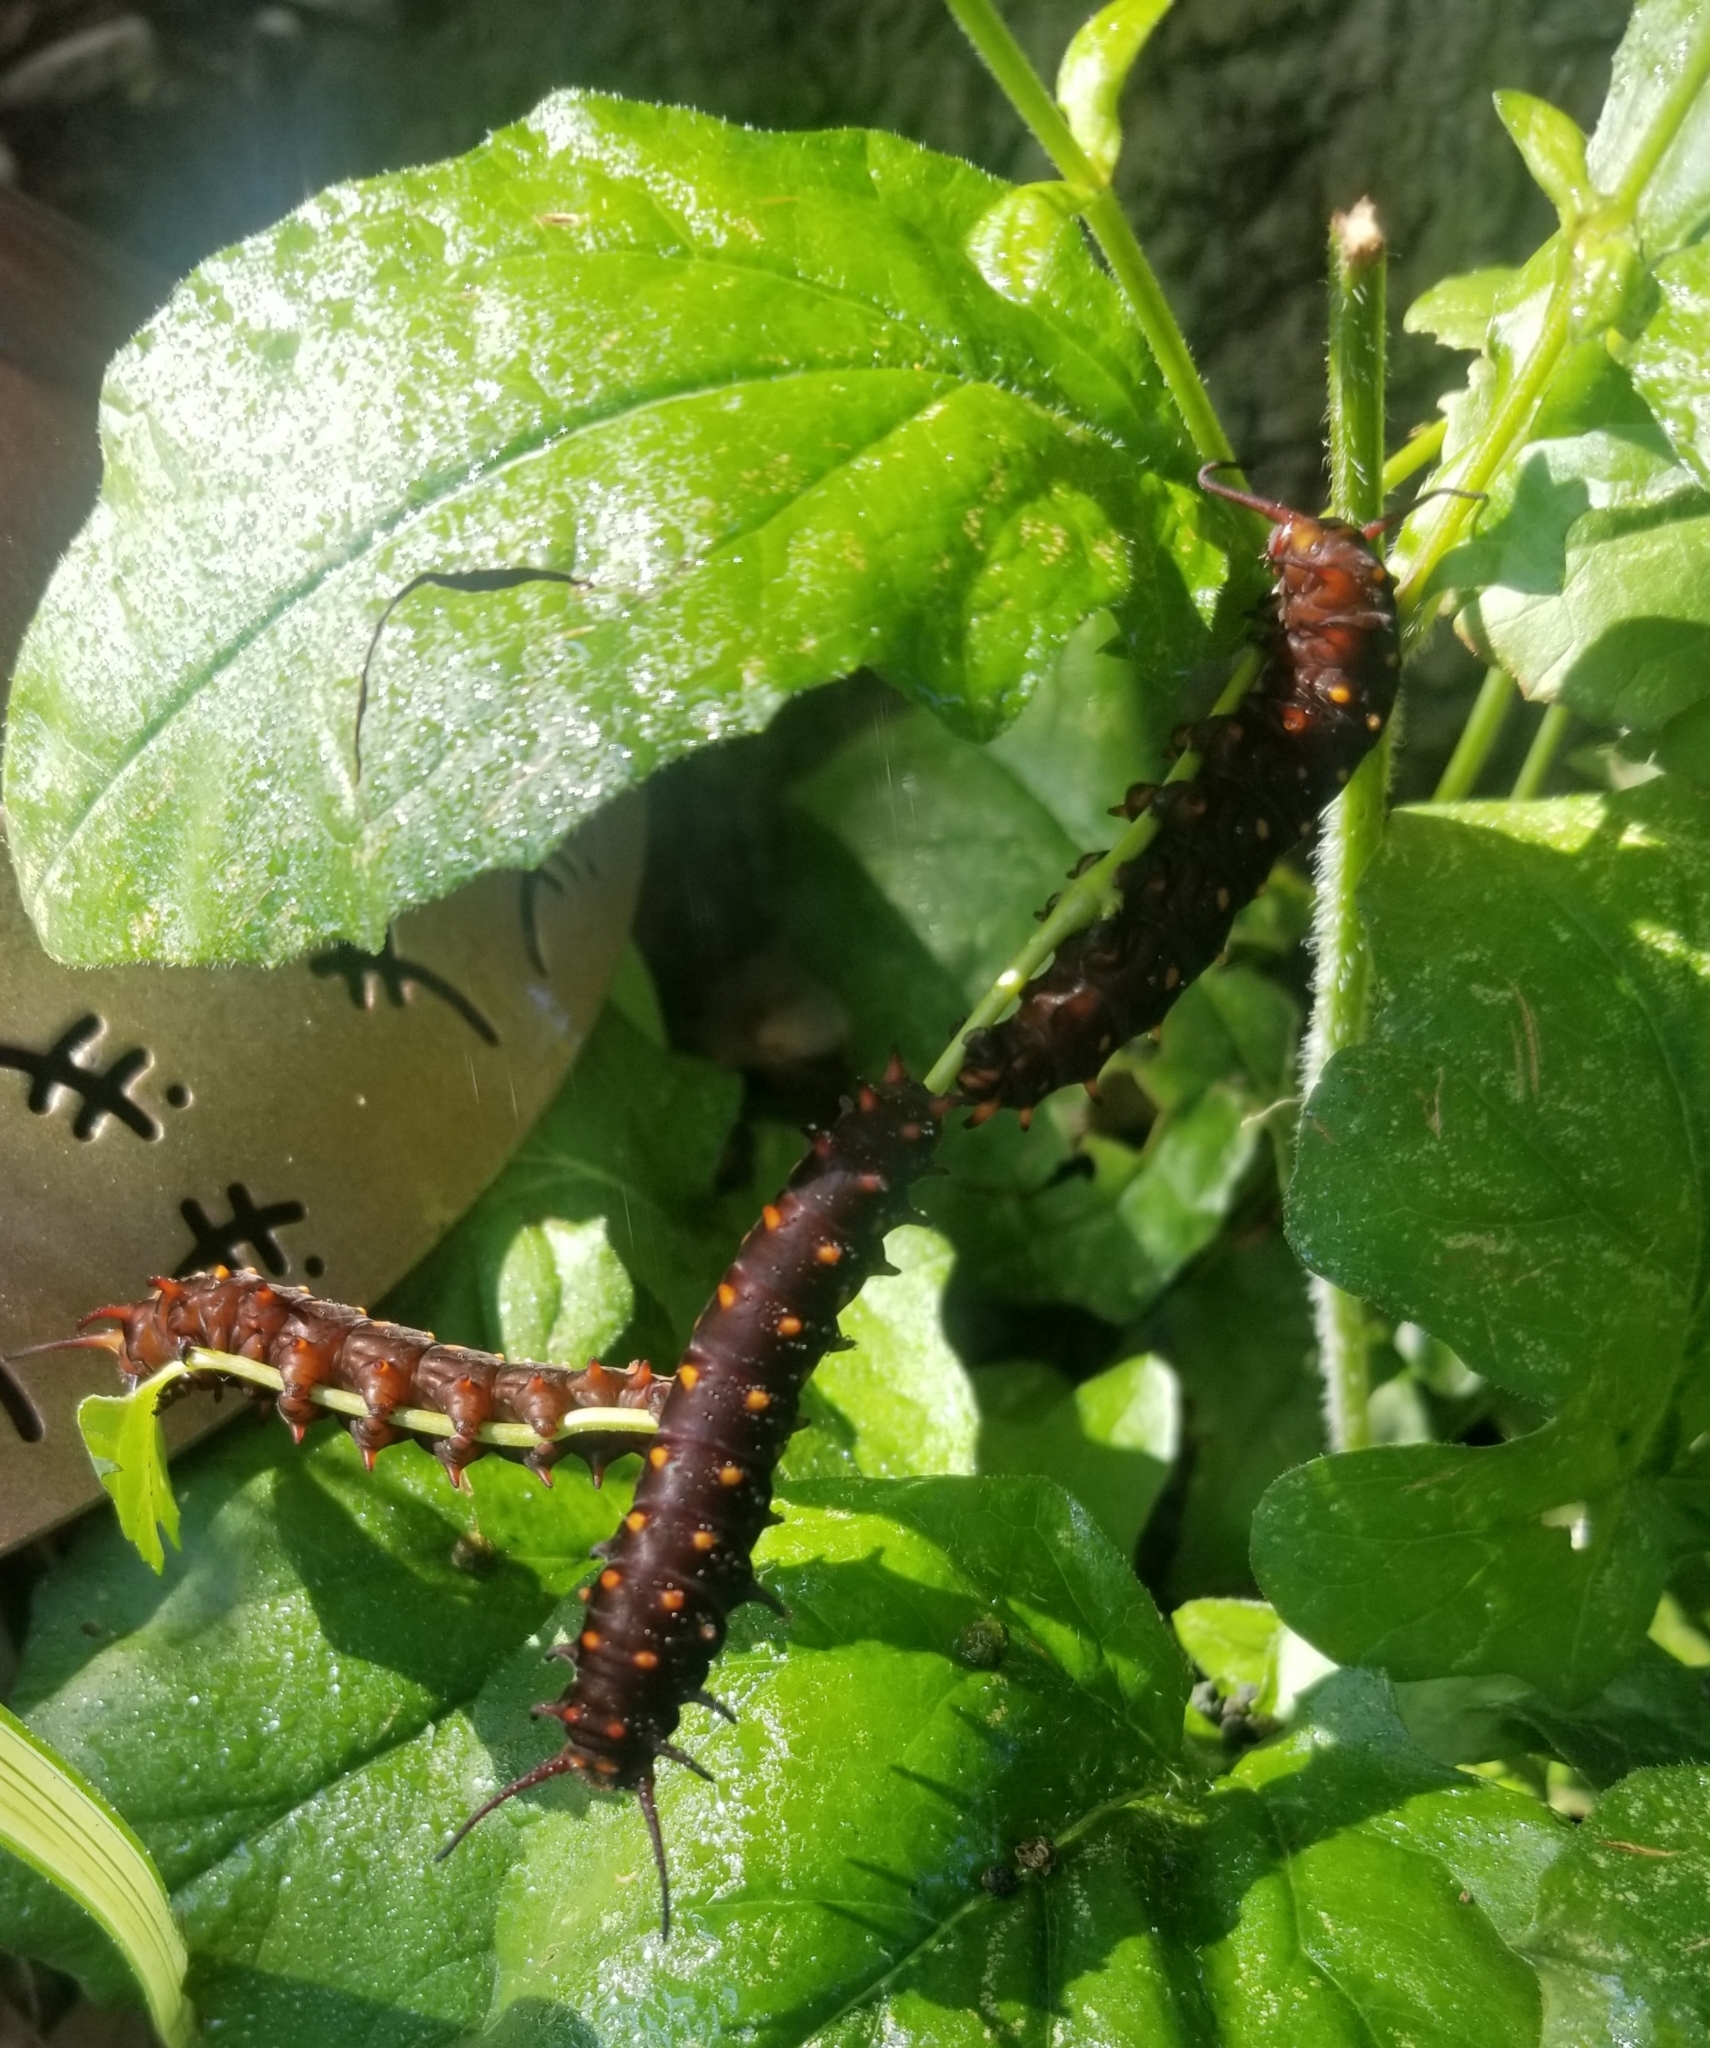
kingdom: Animalia
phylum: Arthropoda
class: Insecta
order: Lepidoptera
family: Papilionidae
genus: Battus
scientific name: Battus philenor
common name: Pipevine swallowtail
